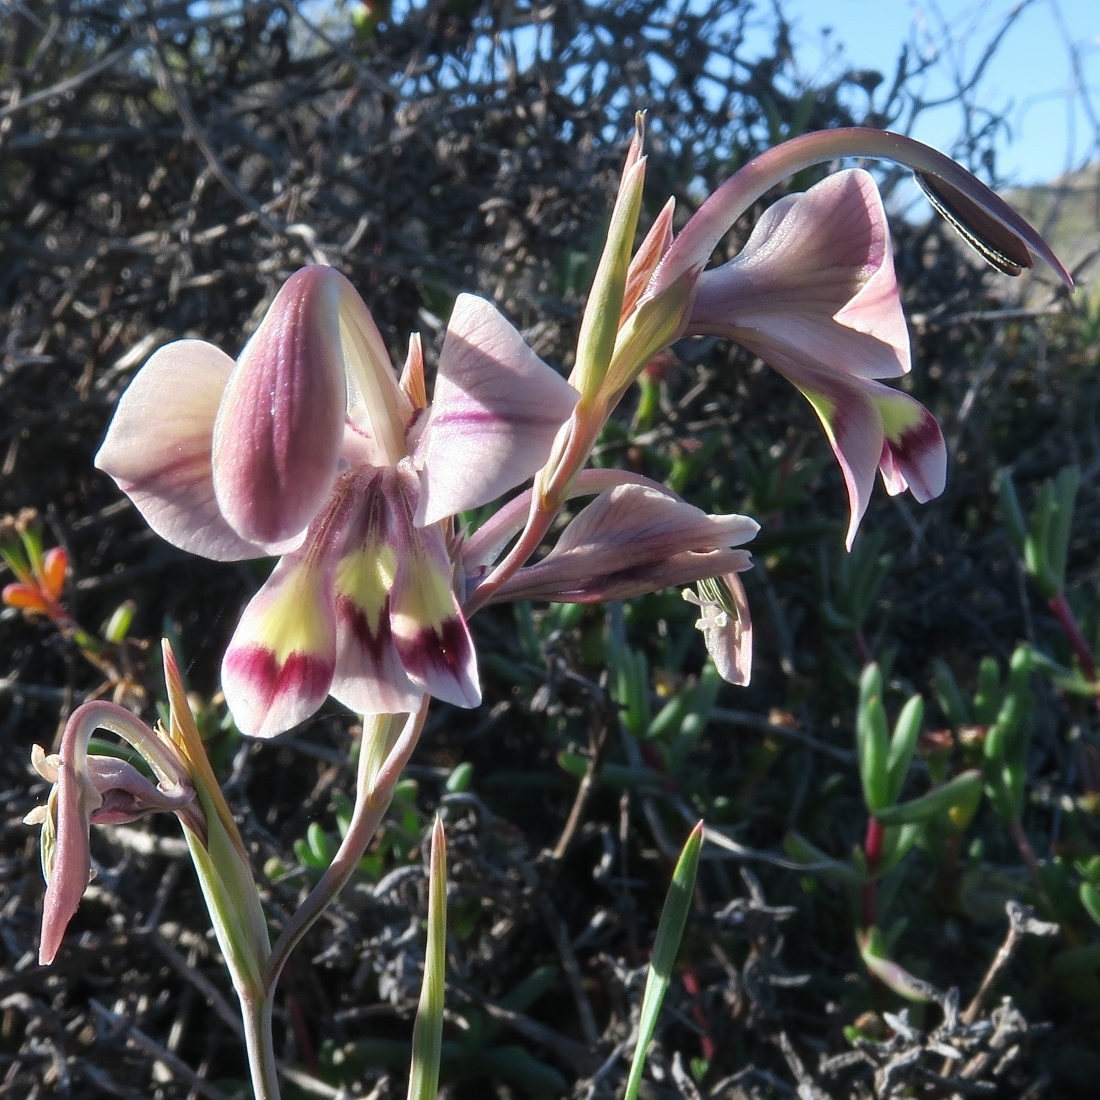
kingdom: Plantae
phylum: Tracheophyta
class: Liliopsida
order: Asparagales
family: Iridaceae
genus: Gladiolus
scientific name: Gladiolus orchidiflorus
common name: Gray kalkoentjie
